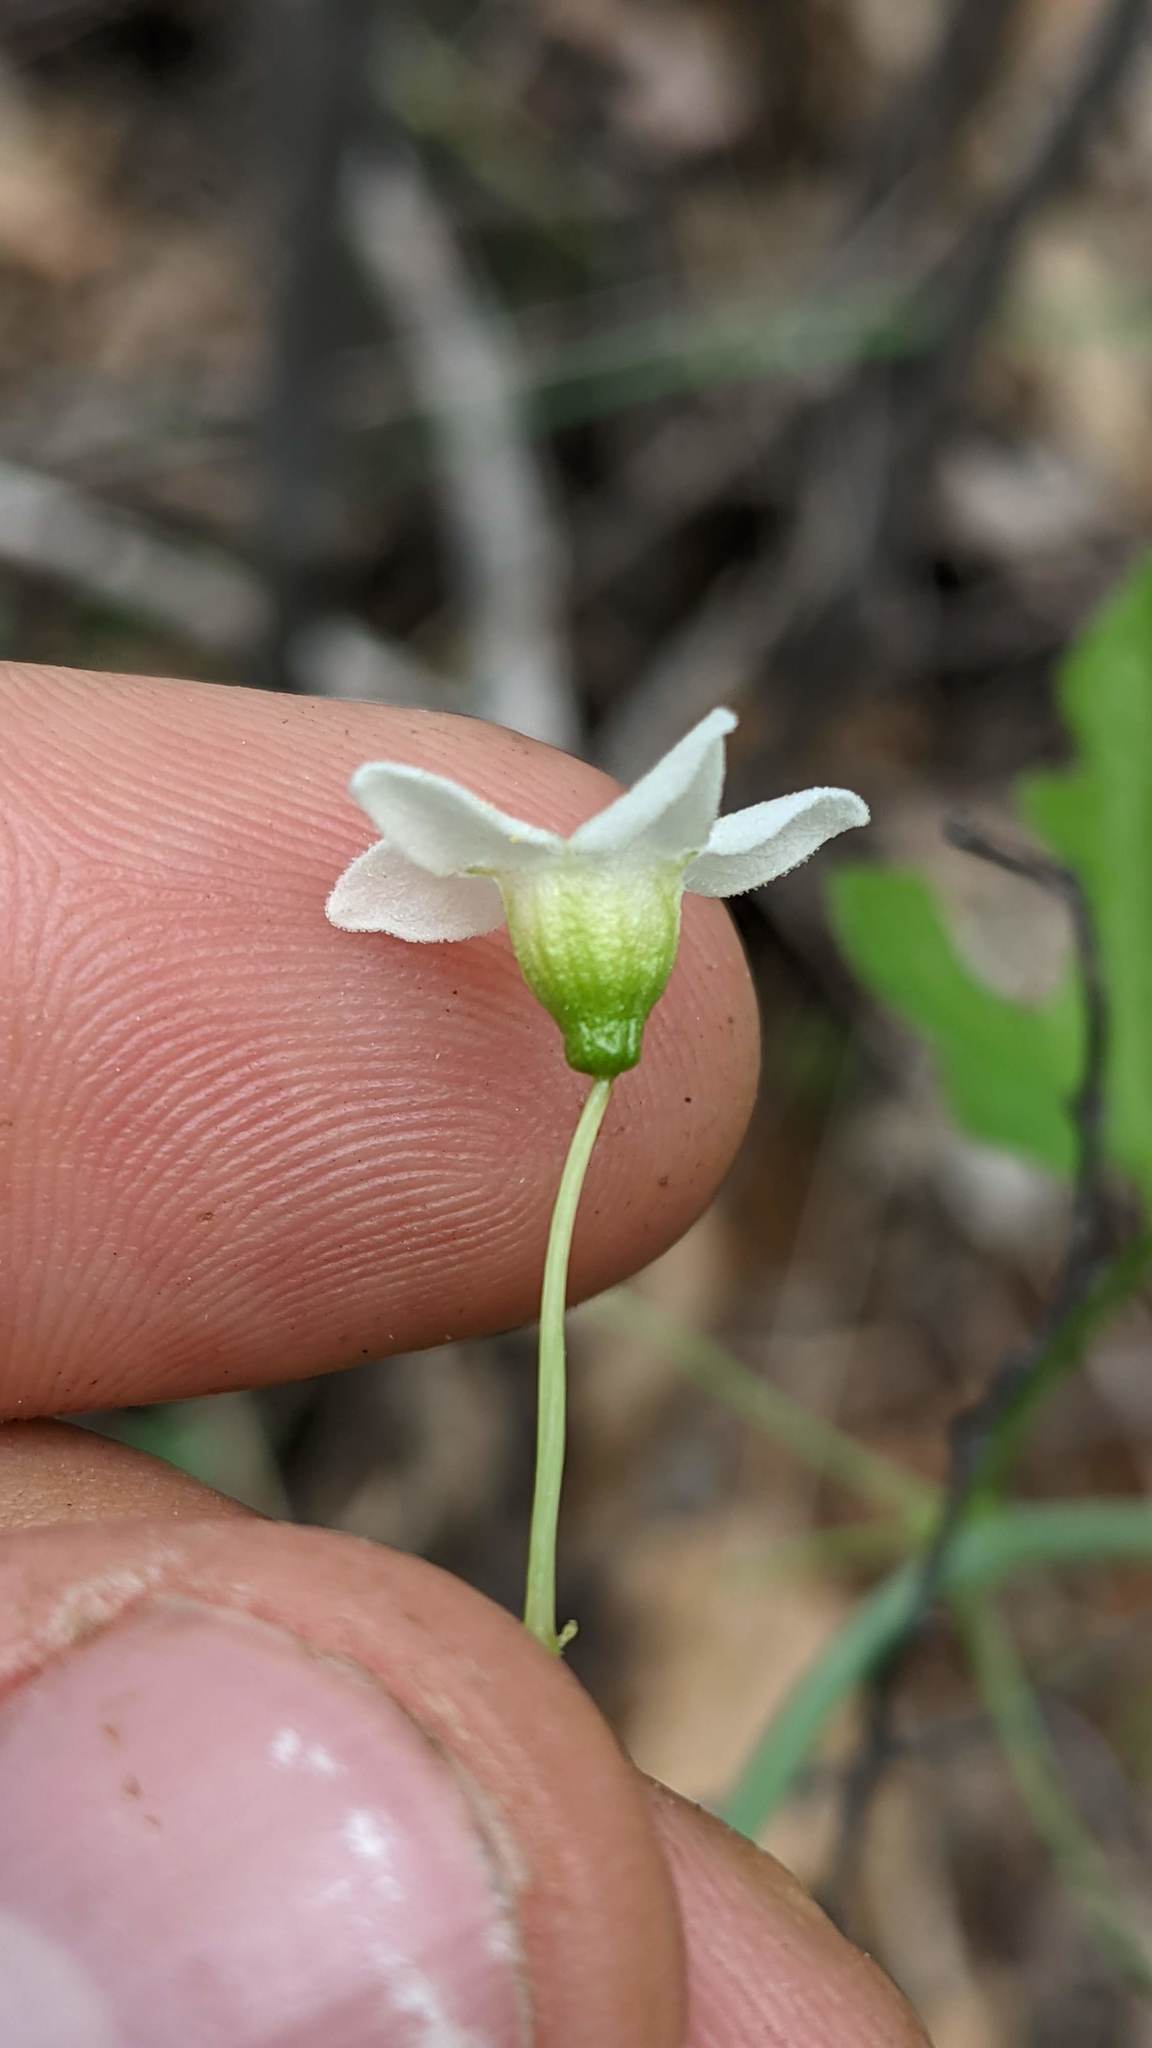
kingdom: Plantae
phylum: Tracheophyta
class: Magnoliopsida
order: Cucurbitales
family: Cucurbitaceae
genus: Marah
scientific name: Marah watsonii
